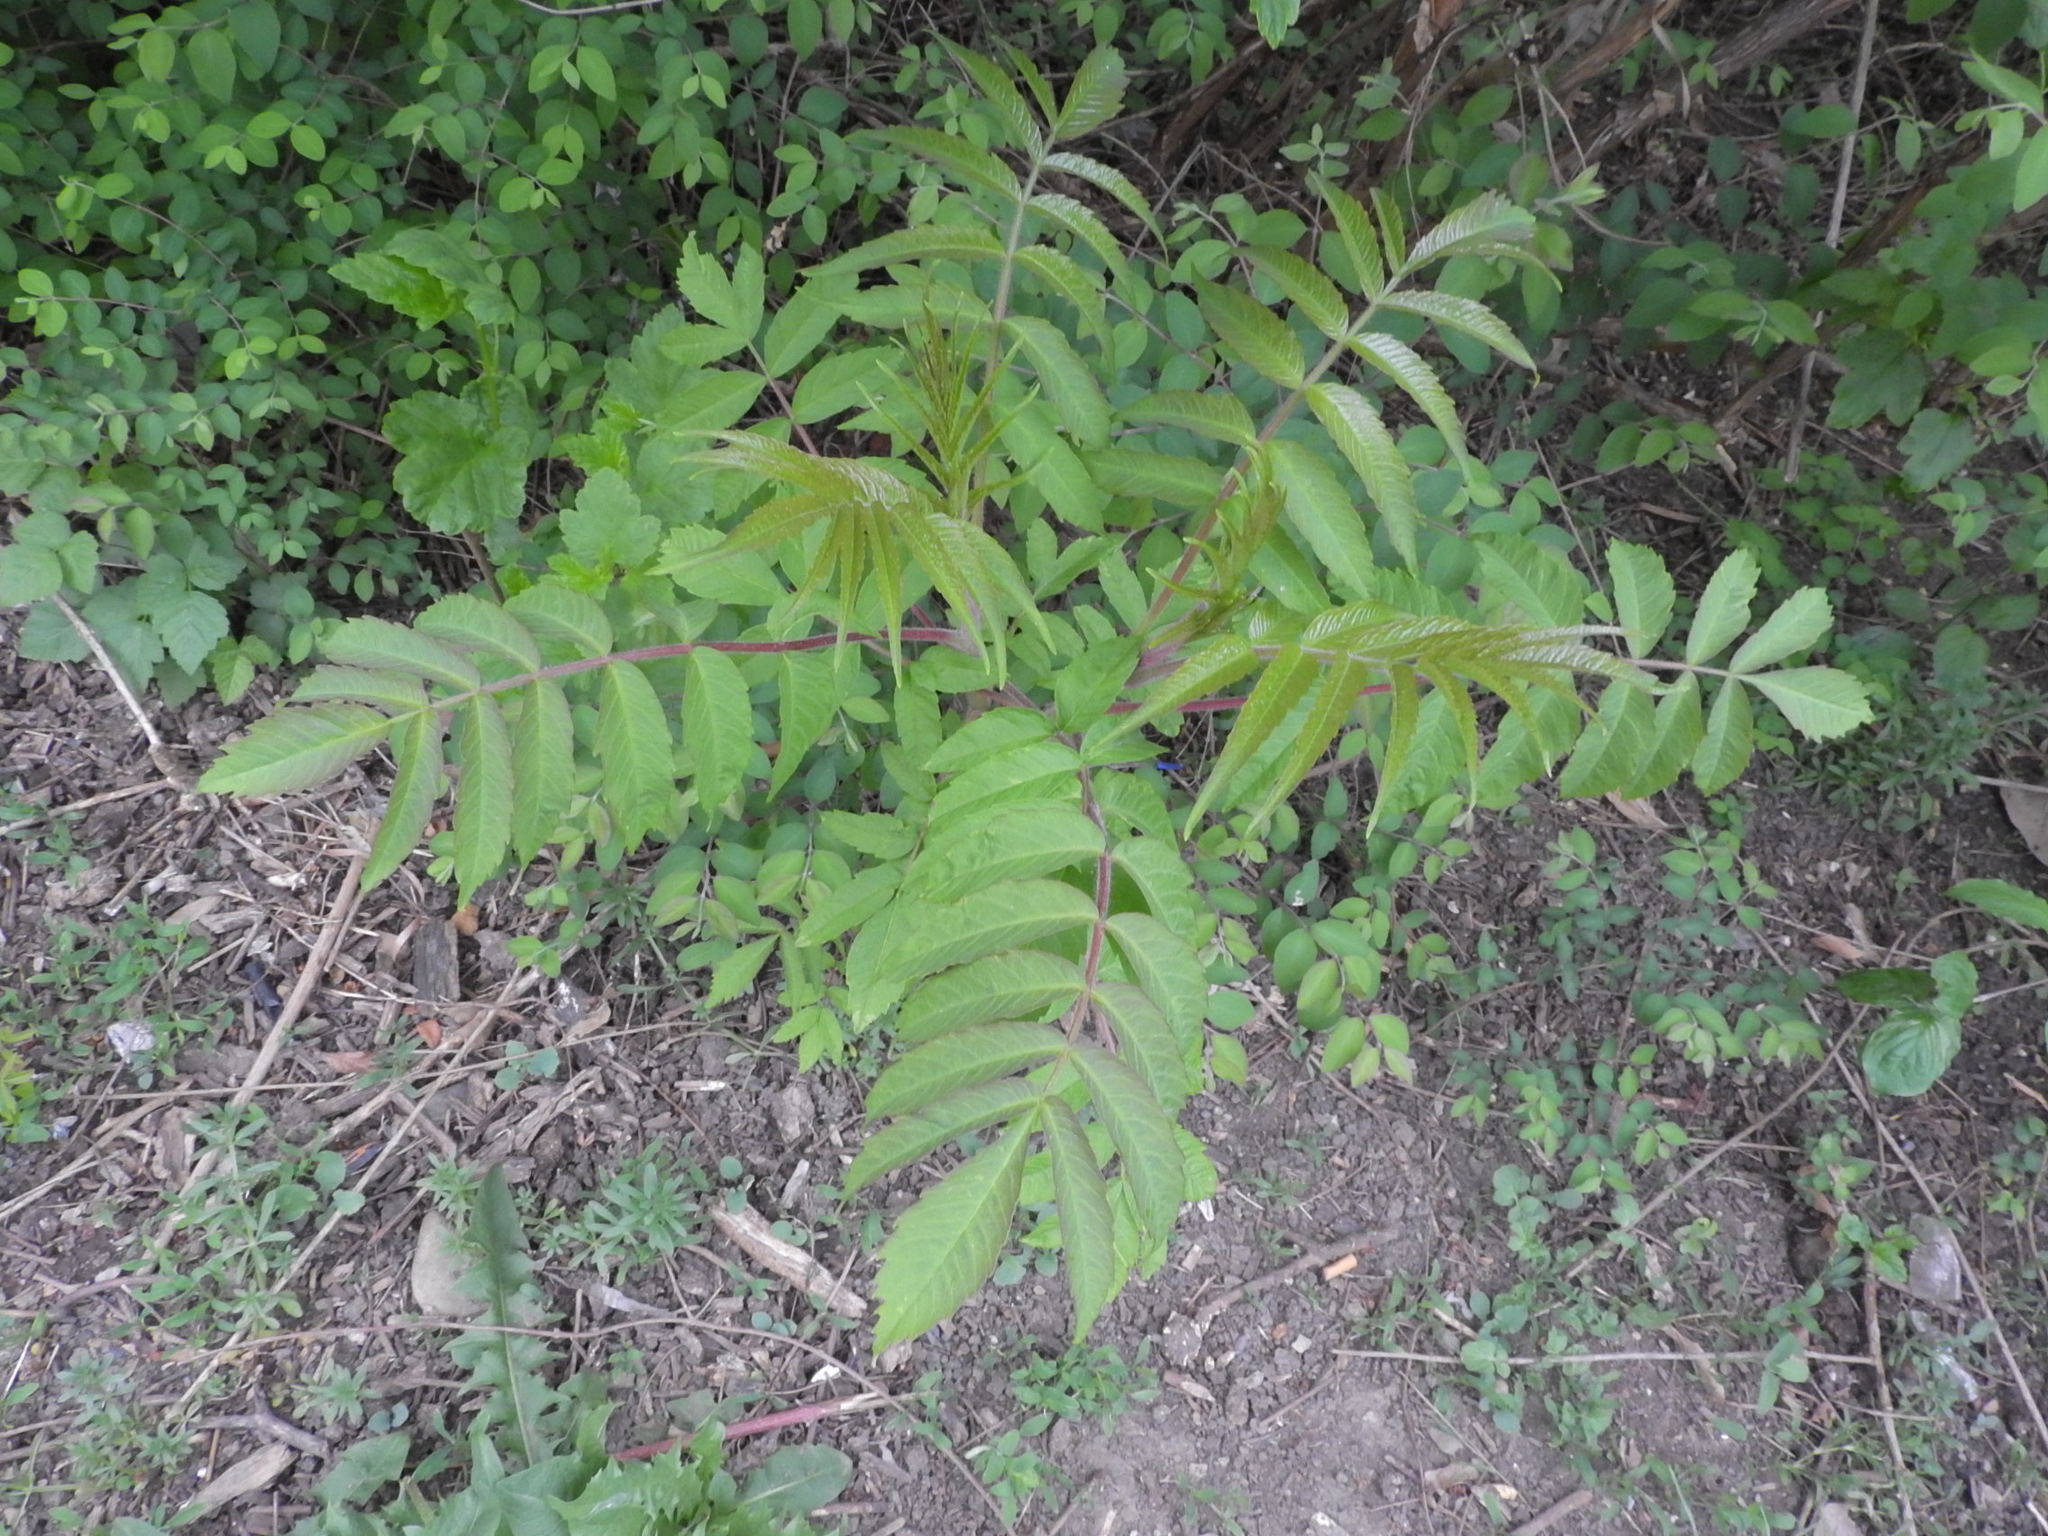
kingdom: Plantae
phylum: Tracheophyta
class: Magnoliopsida
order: Sapindales
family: Anacardiaceae
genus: Rhus
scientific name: Rhus typhina
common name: Staghorn sumac
